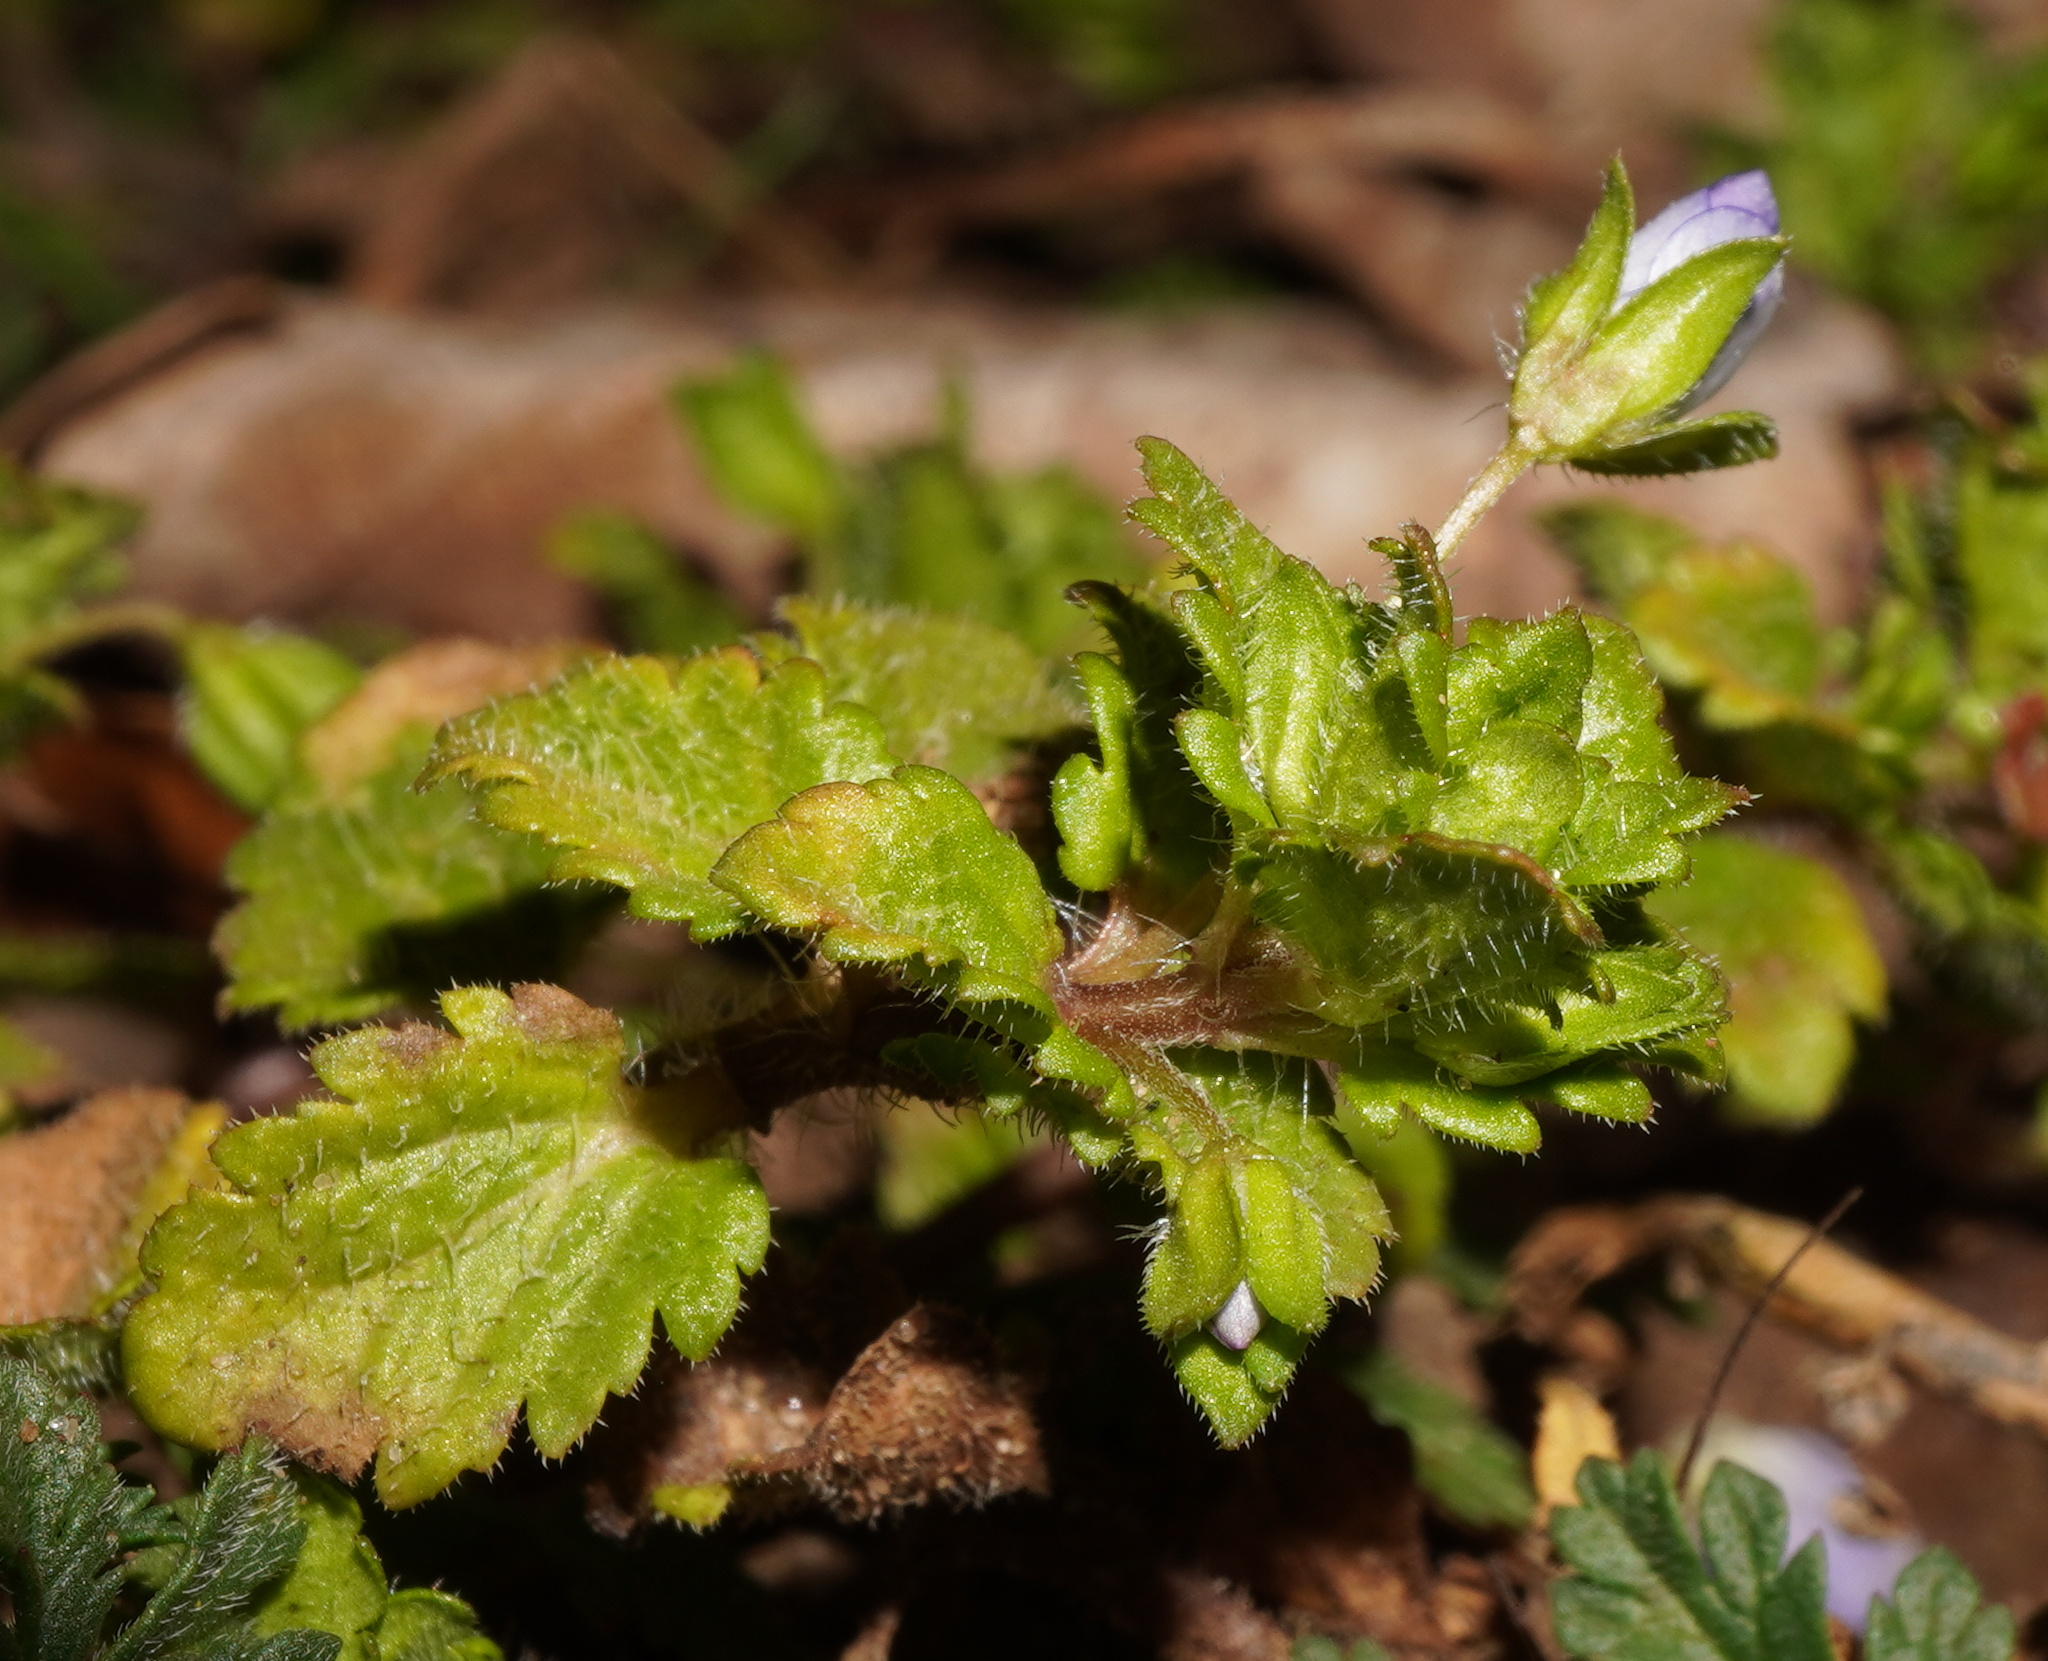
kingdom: Plantae
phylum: Tracheophyta
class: Magnoliopsida
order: Lamiales
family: Plantaginaceae
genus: Veronica
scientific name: Veronica polita
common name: Grey field-speedwell
